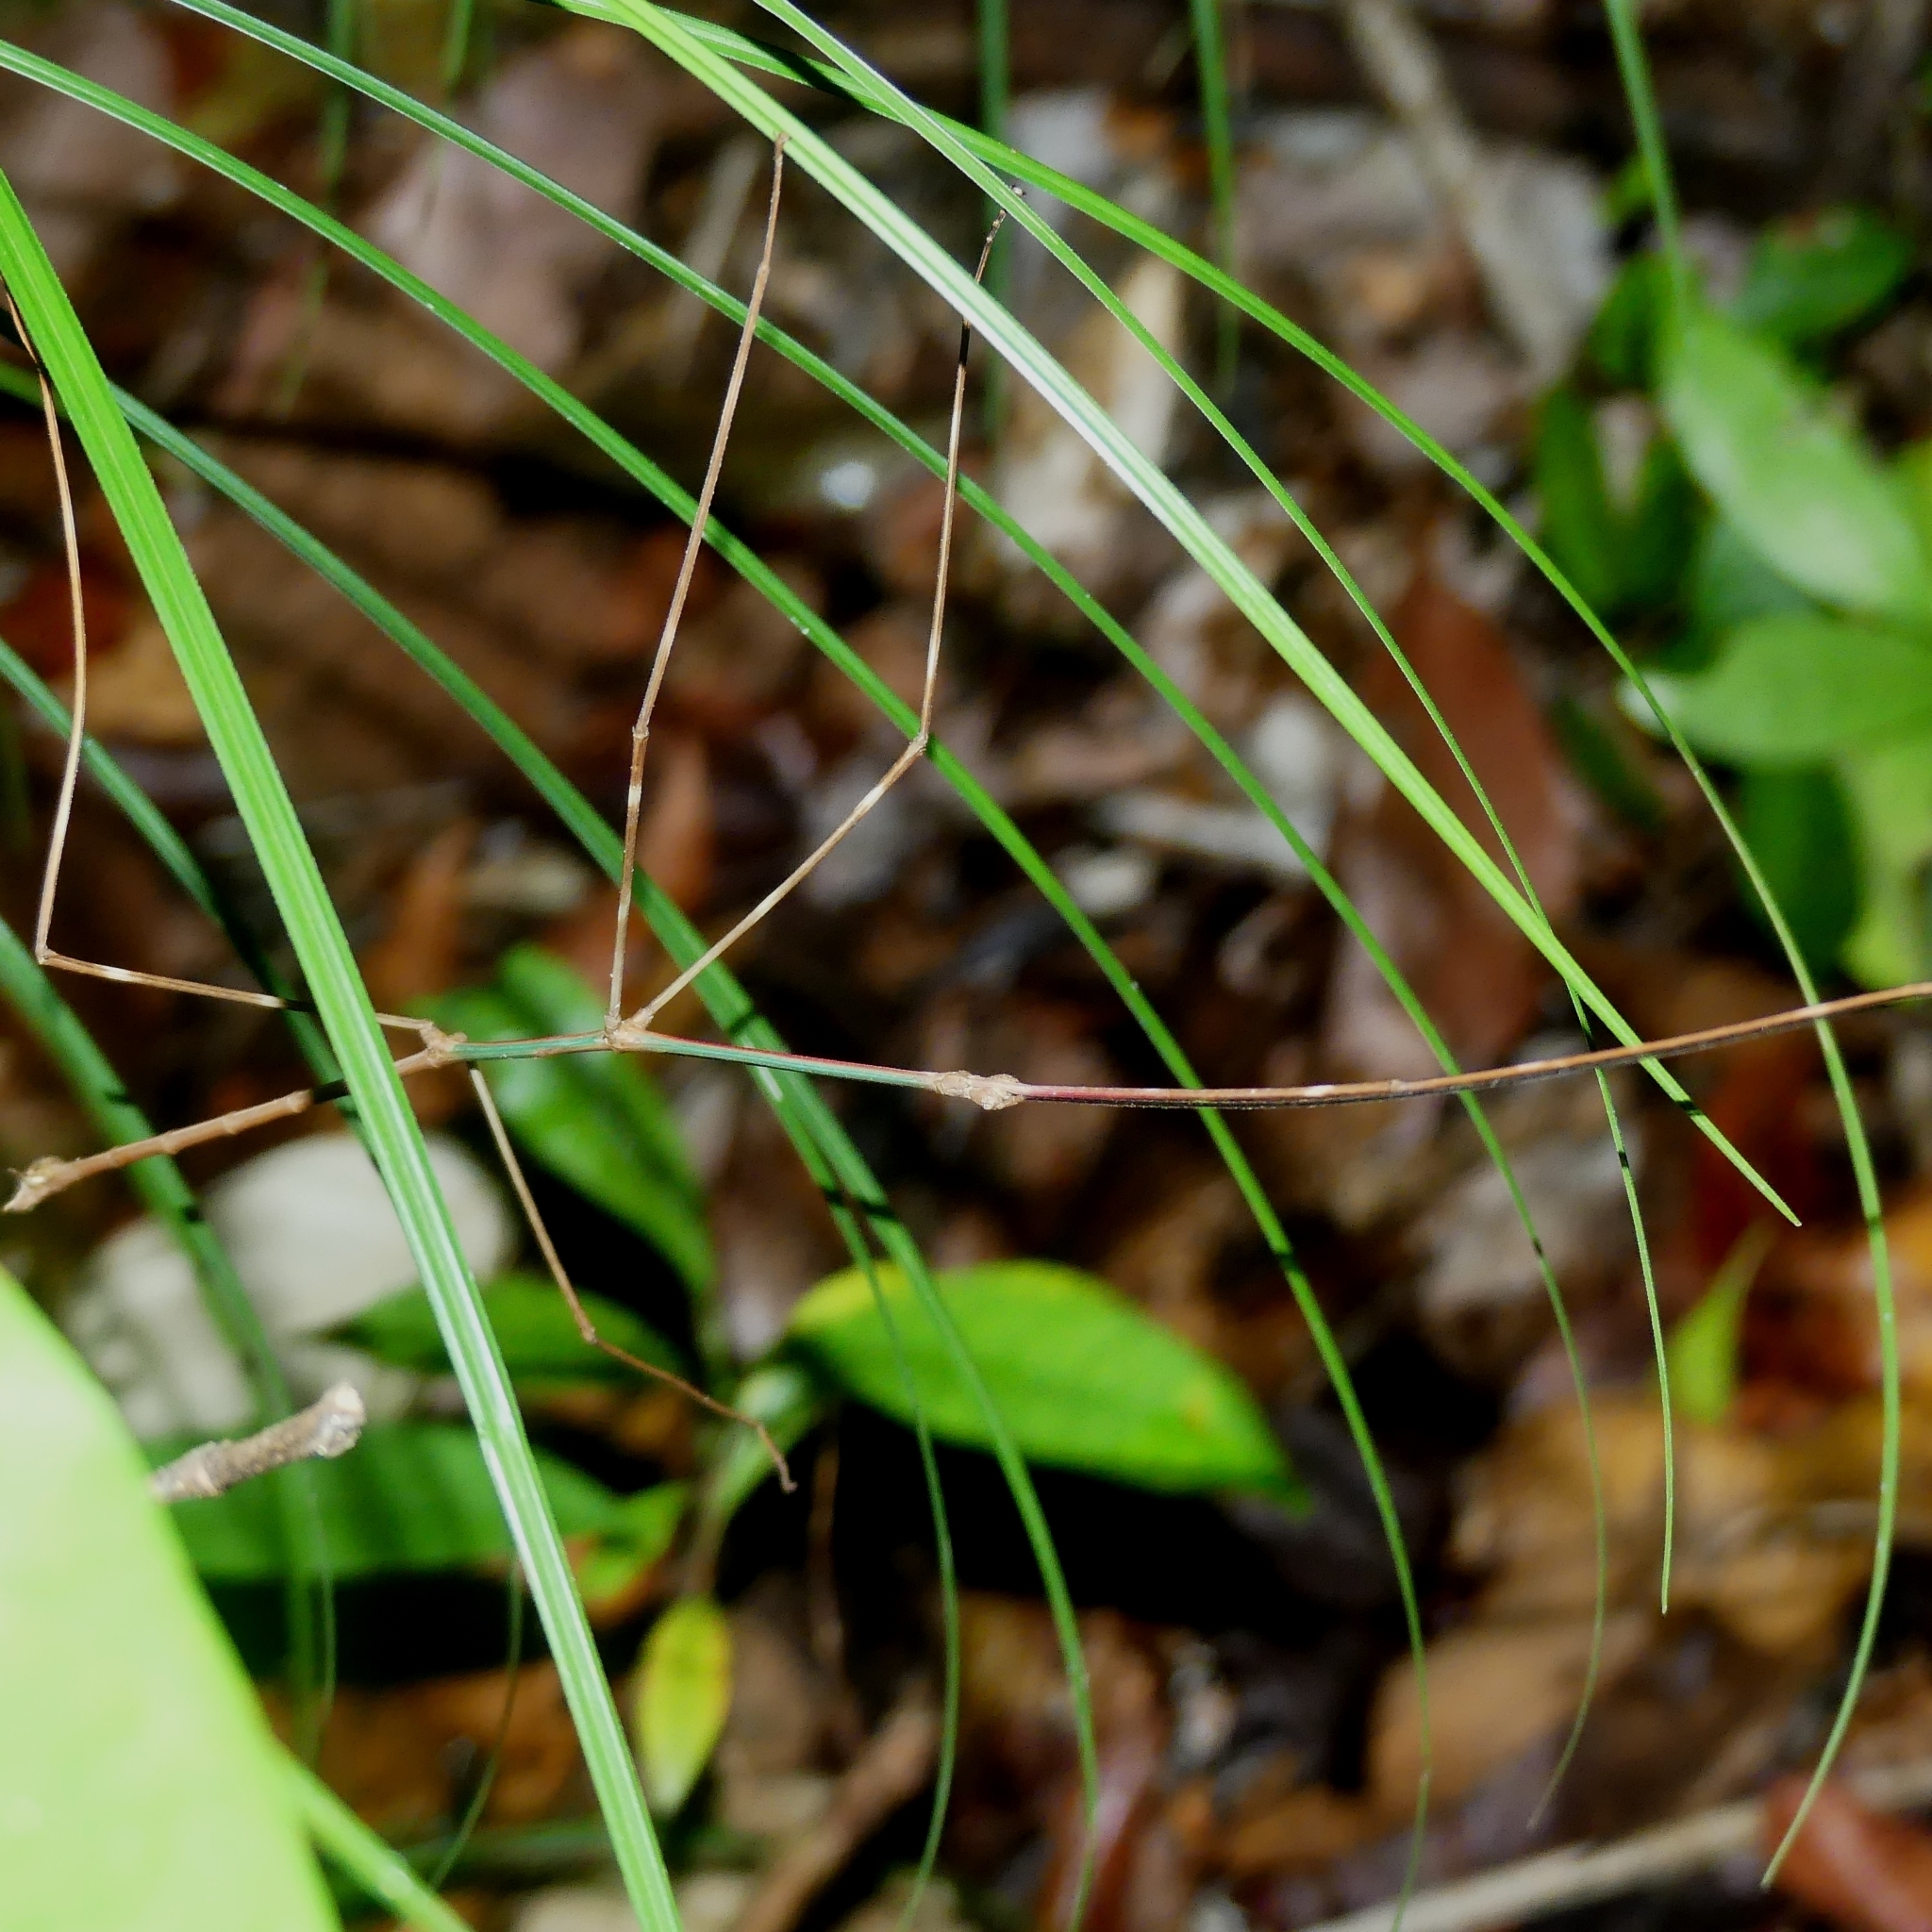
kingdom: Animalia
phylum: Arthropoda
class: Insecta
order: Phasmida
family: Diapheromeridae
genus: Phanocloidea
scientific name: Phanocloidea muricata
